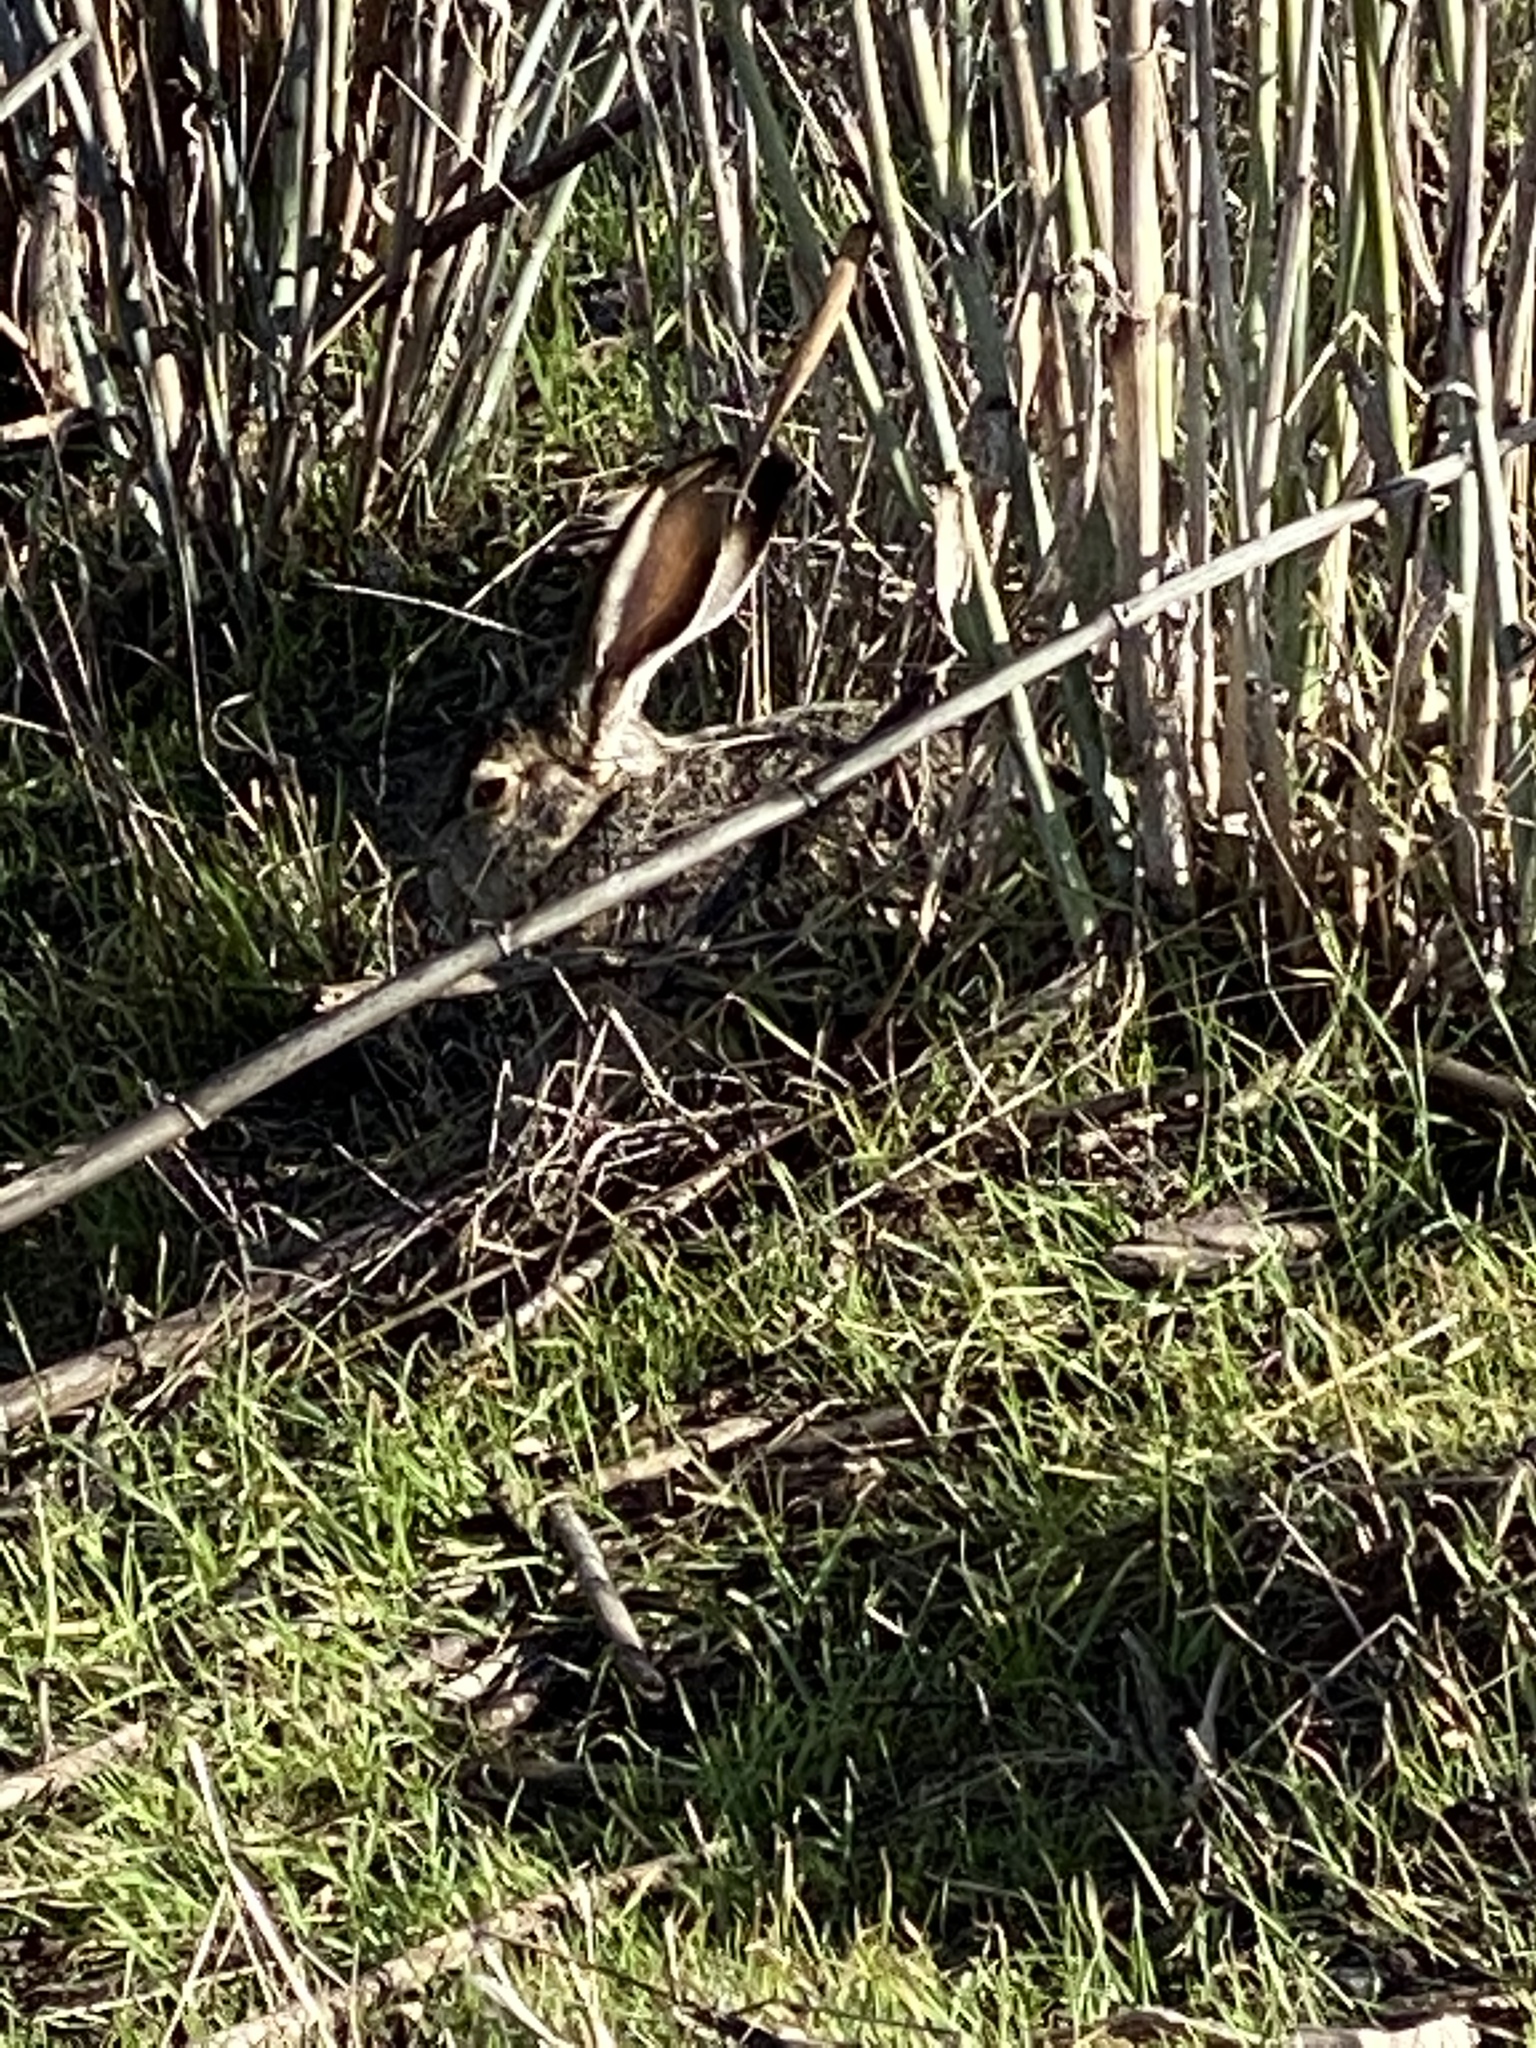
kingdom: Animalia
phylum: Chordata
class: Mammalia
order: Lagomorpha
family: Leporidae
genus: Lepus
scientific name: Lepus californicus
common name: Black-tailed jackrabbit
